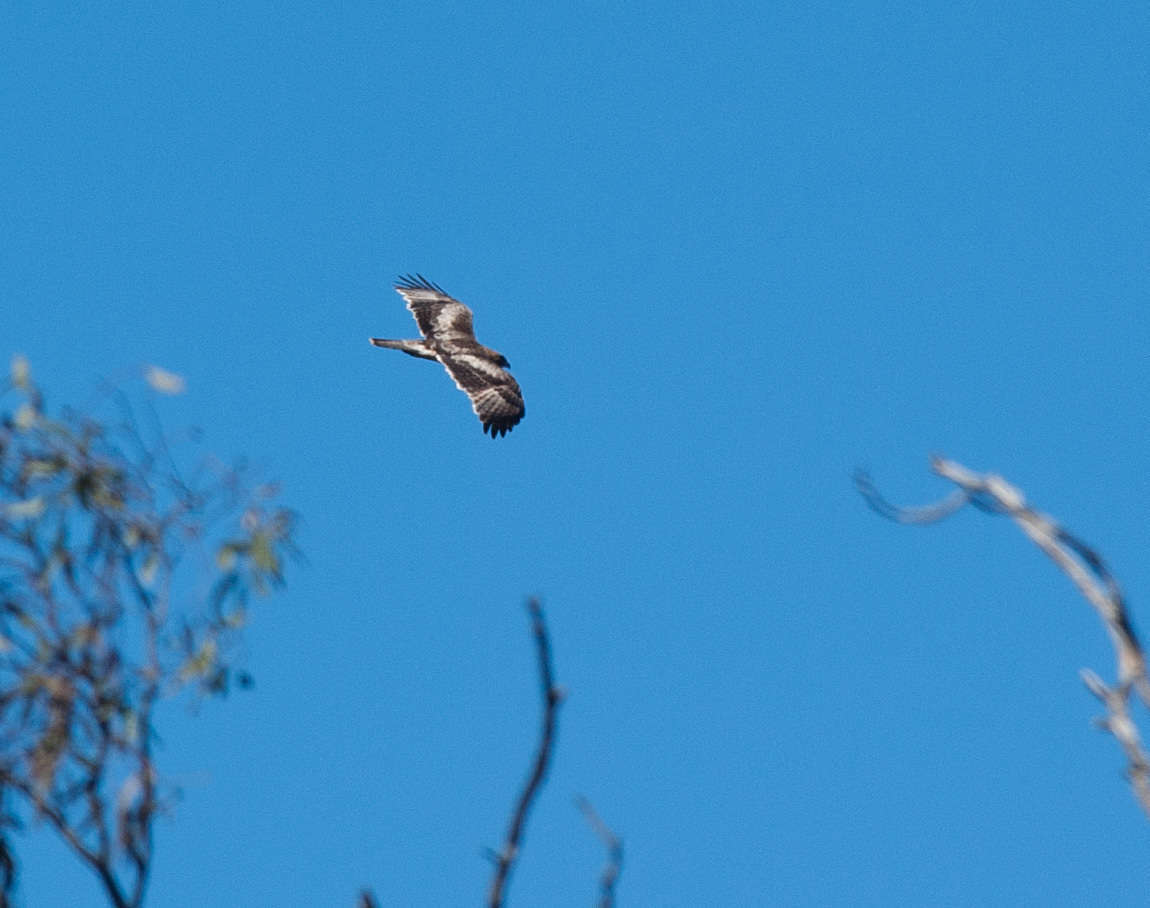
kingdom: Animalia
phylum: Chordata
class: Aves
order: Accipitriformes
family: Accipitridae
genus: Hieraaetus
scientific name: Hieraaetus morphnoides
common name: Little eagle
